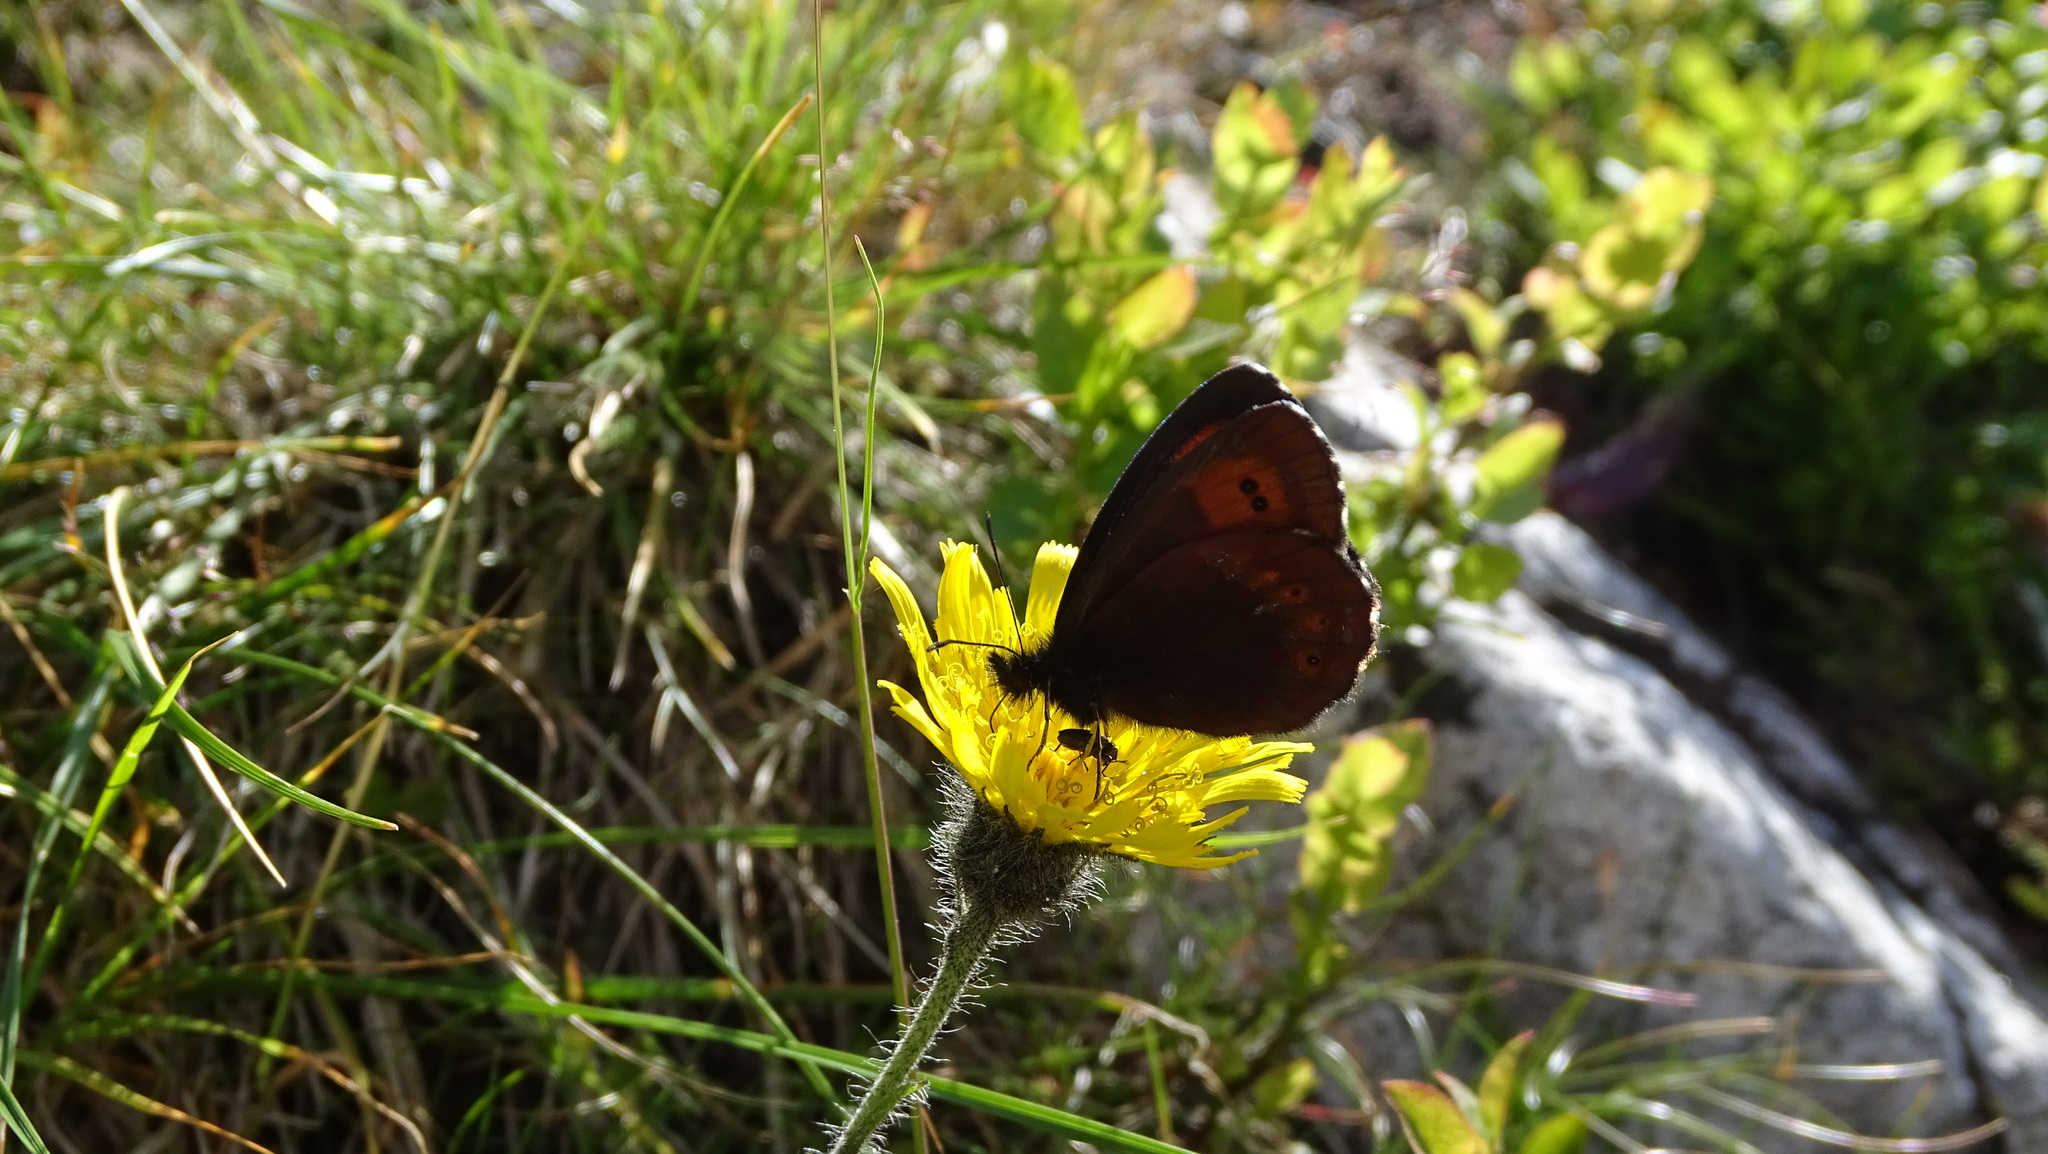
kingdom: Animalia
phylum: Arthropoda
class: Insecta
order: Lepidoptera
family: Nymphalidae
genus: Erebia
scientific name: Erebia euryale
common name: Large ringlet
